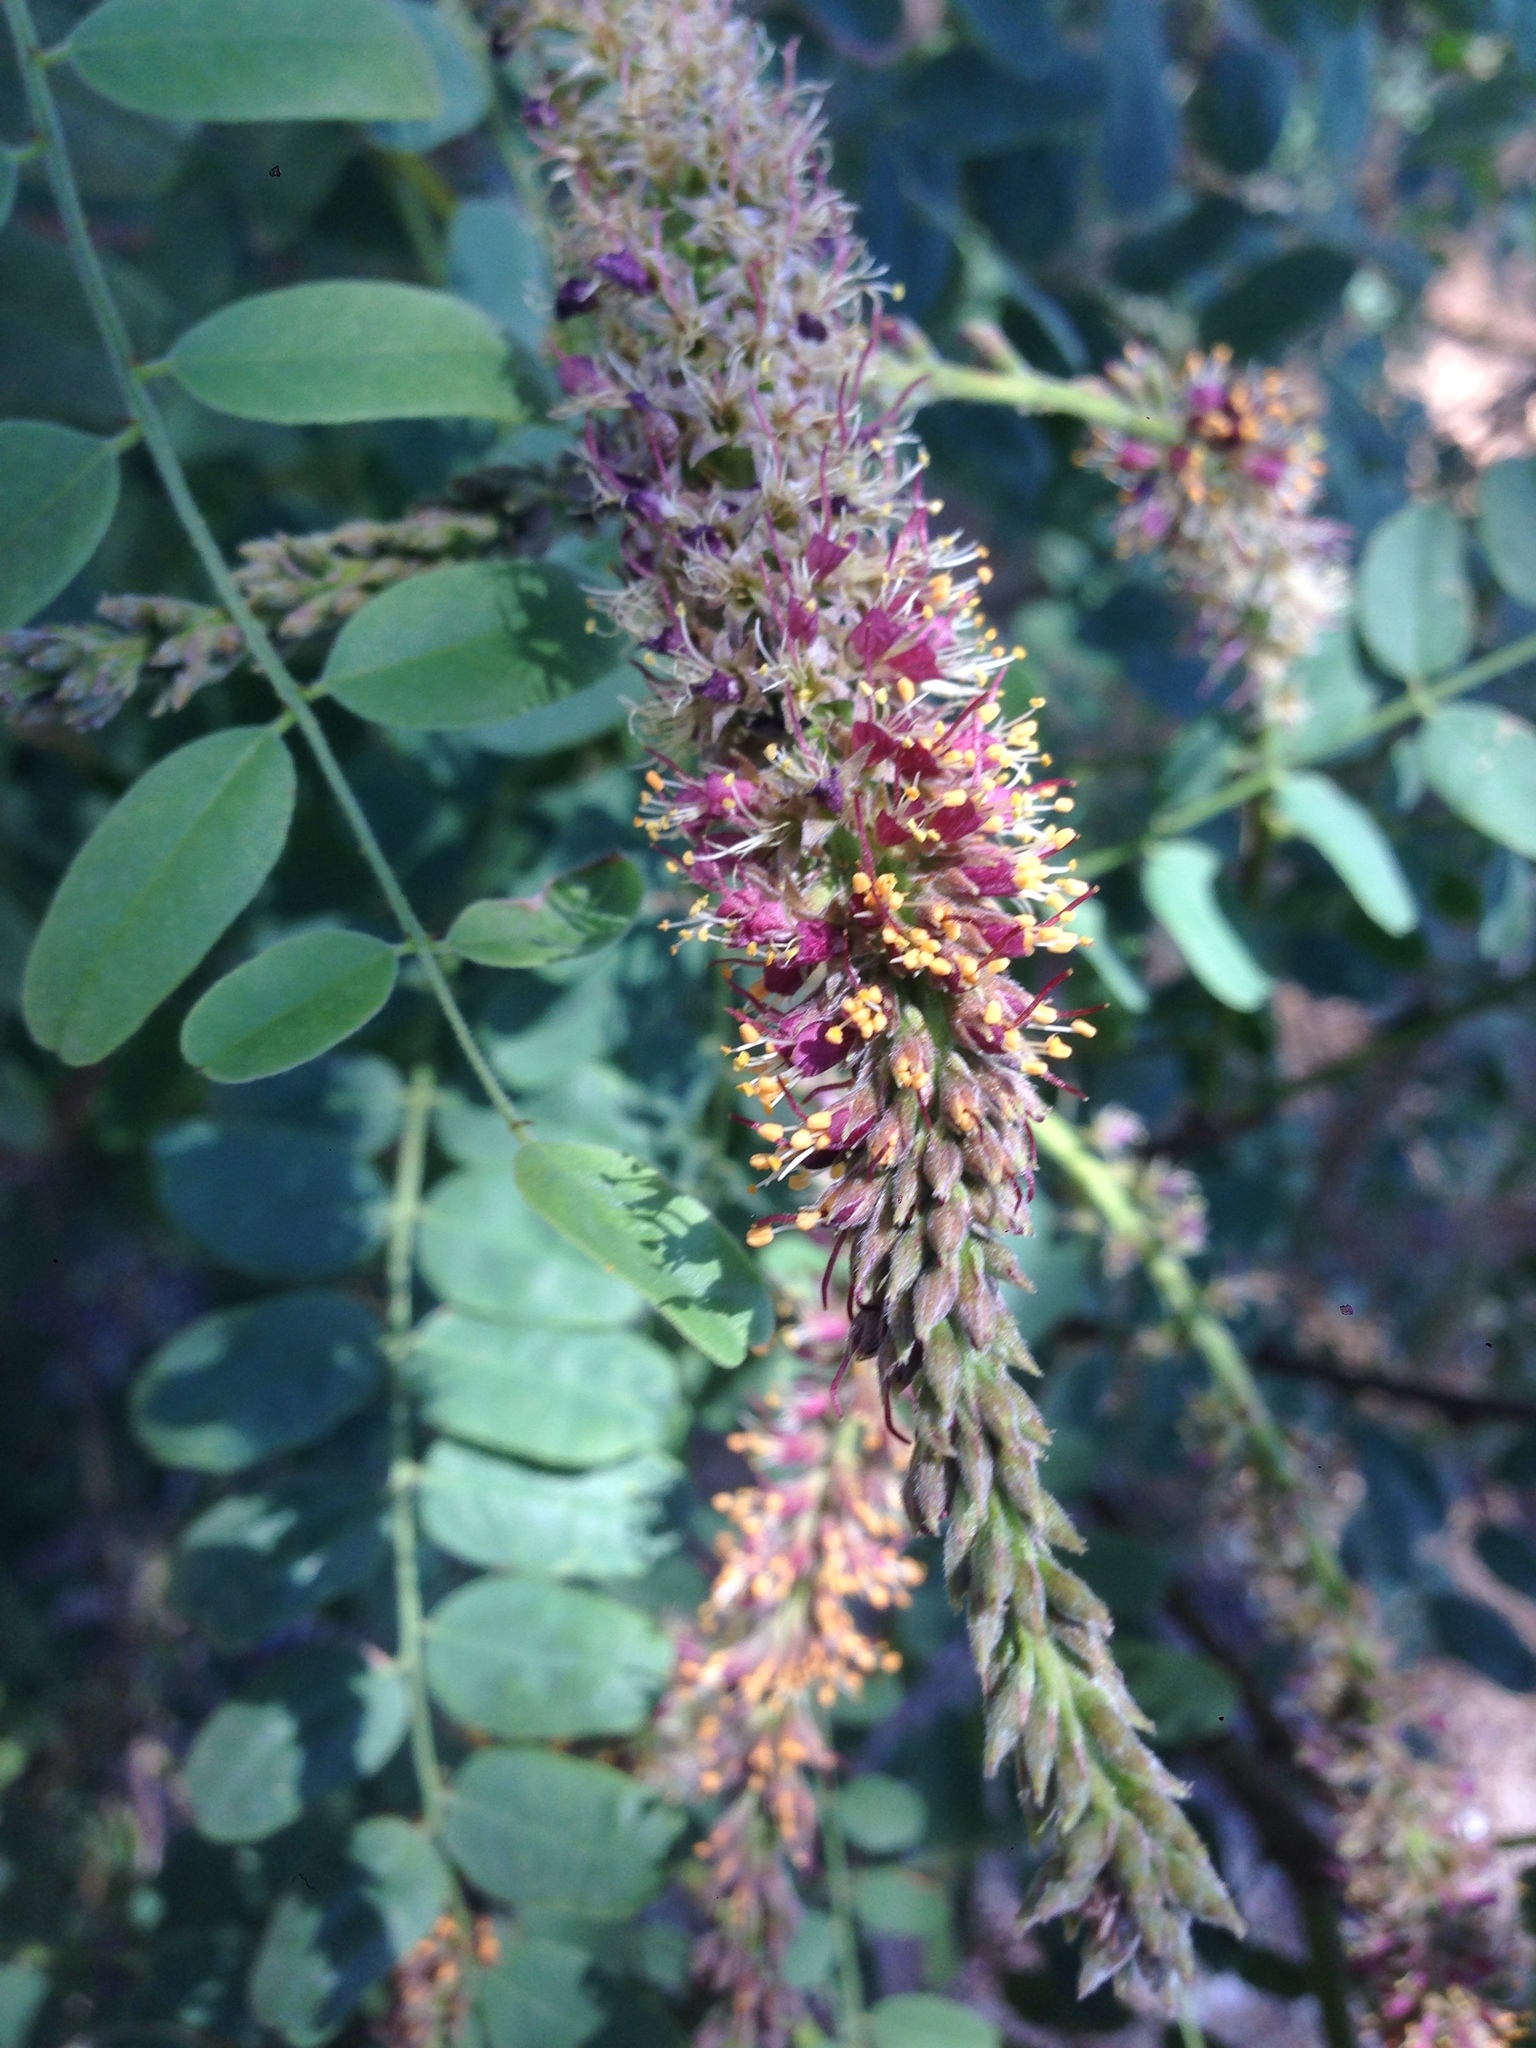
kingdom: Plantae
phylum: Tracheophyta
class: Magnoliopsida
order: Fabales
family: Fabaceae
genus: Amorpha
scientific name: Amorpha californica
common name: California indigobush
